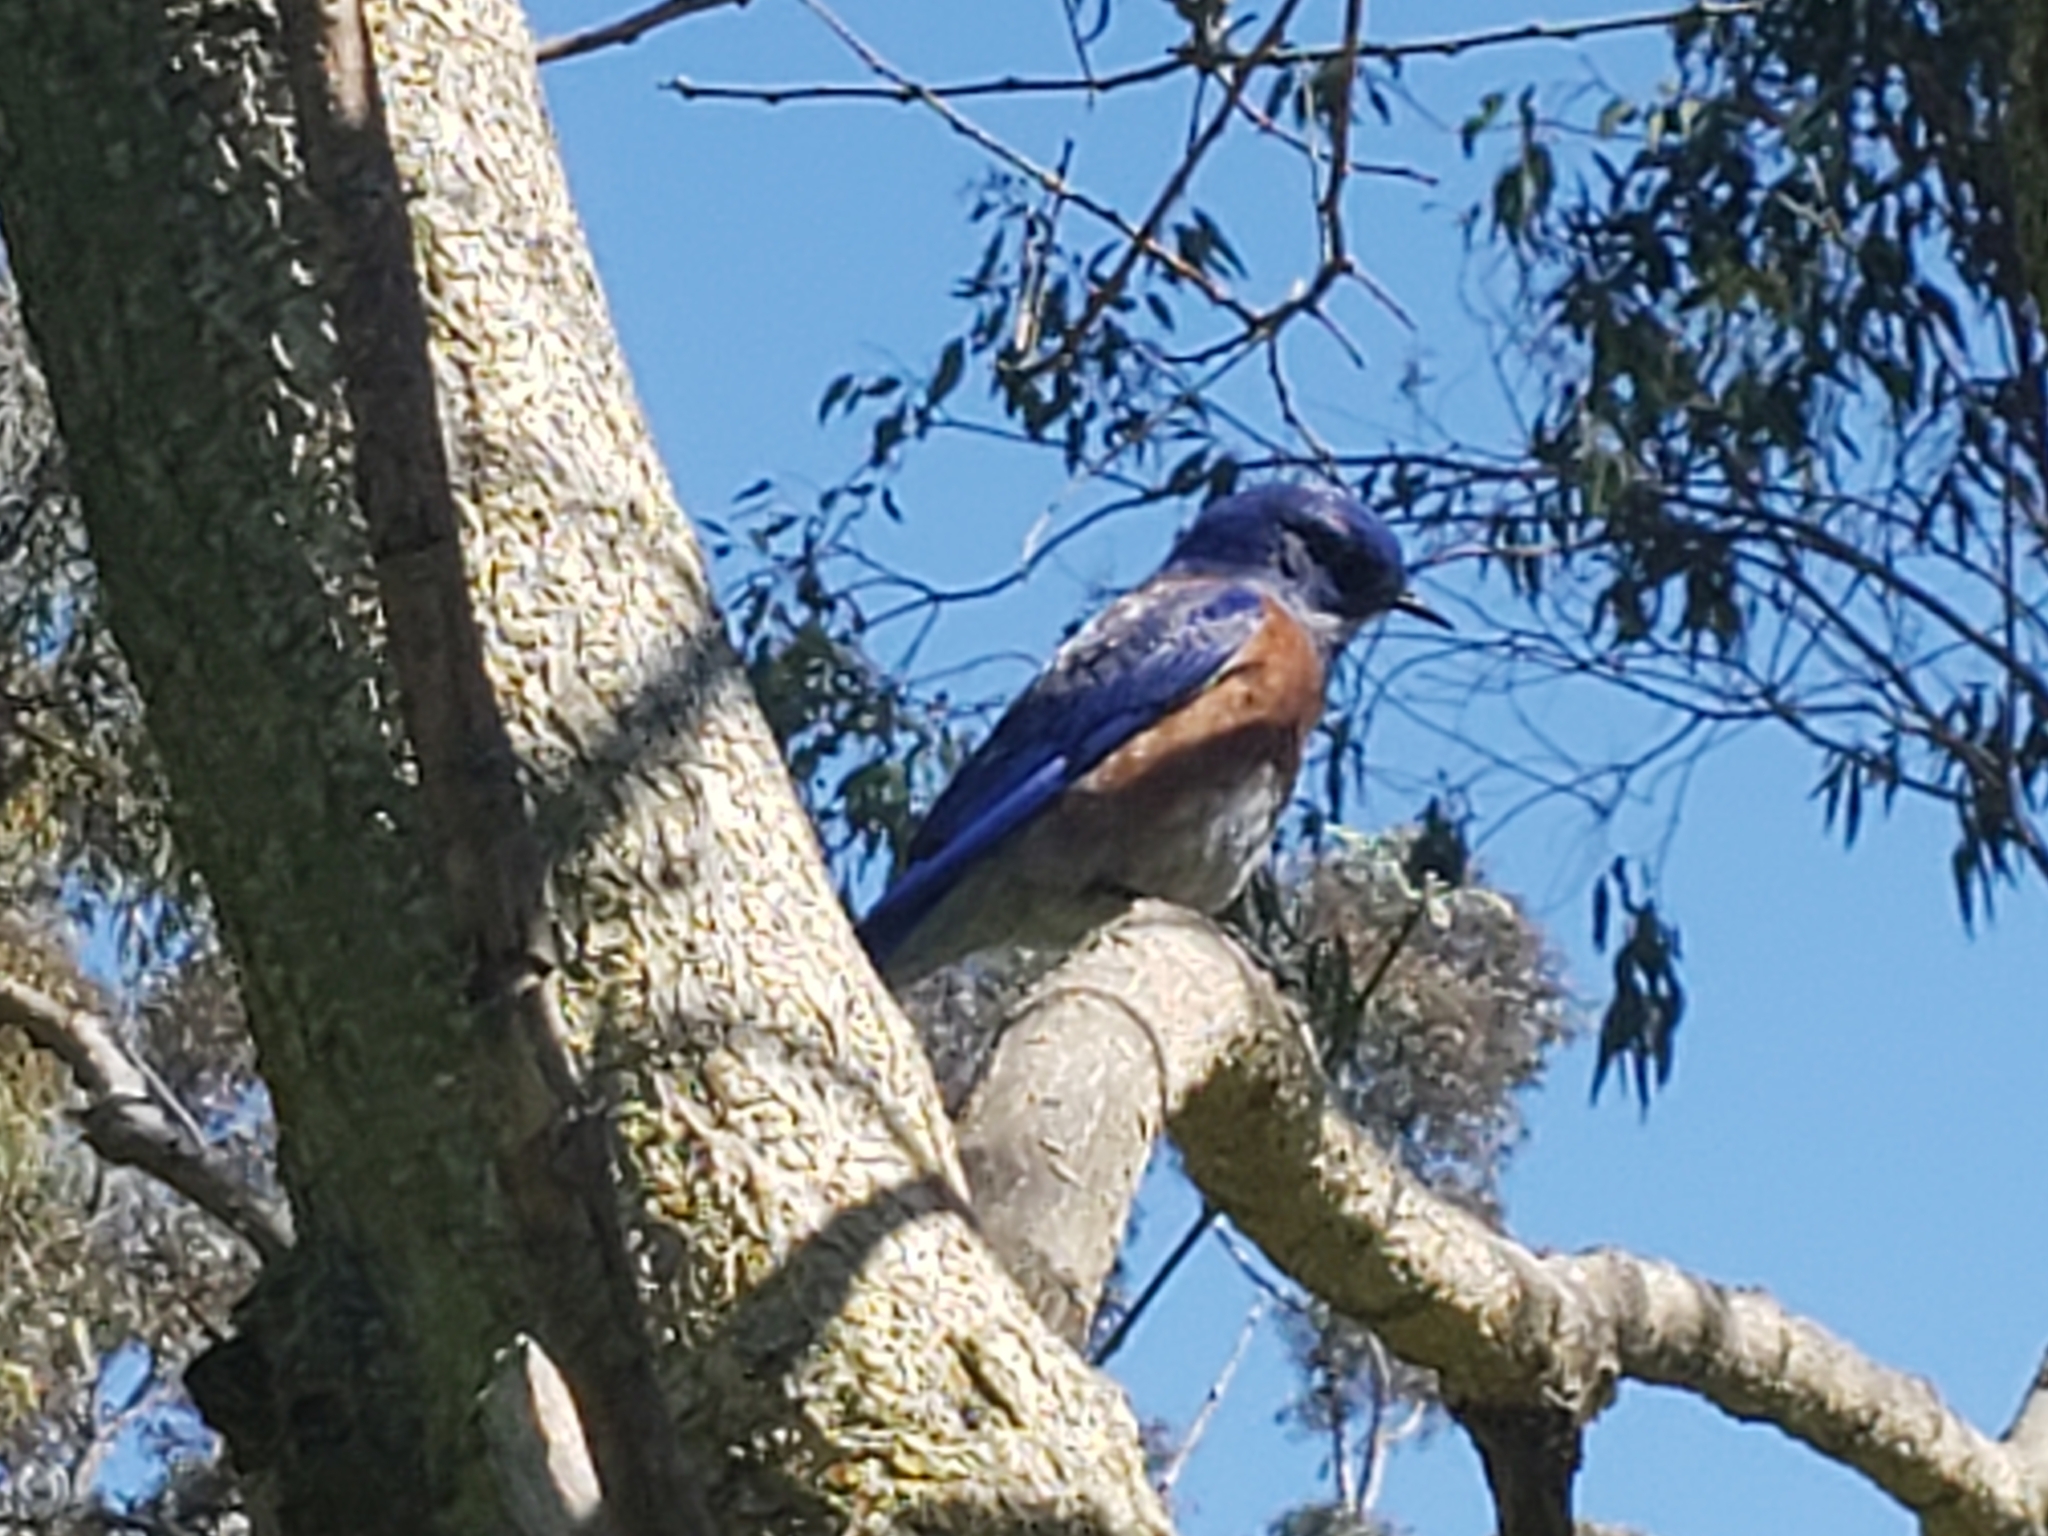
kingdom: Animalia
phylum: Chordata
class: Aves
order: Passeriformes
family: Turdidae
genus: Sialia
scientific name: Sialia mexicana
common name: Western bluebird
